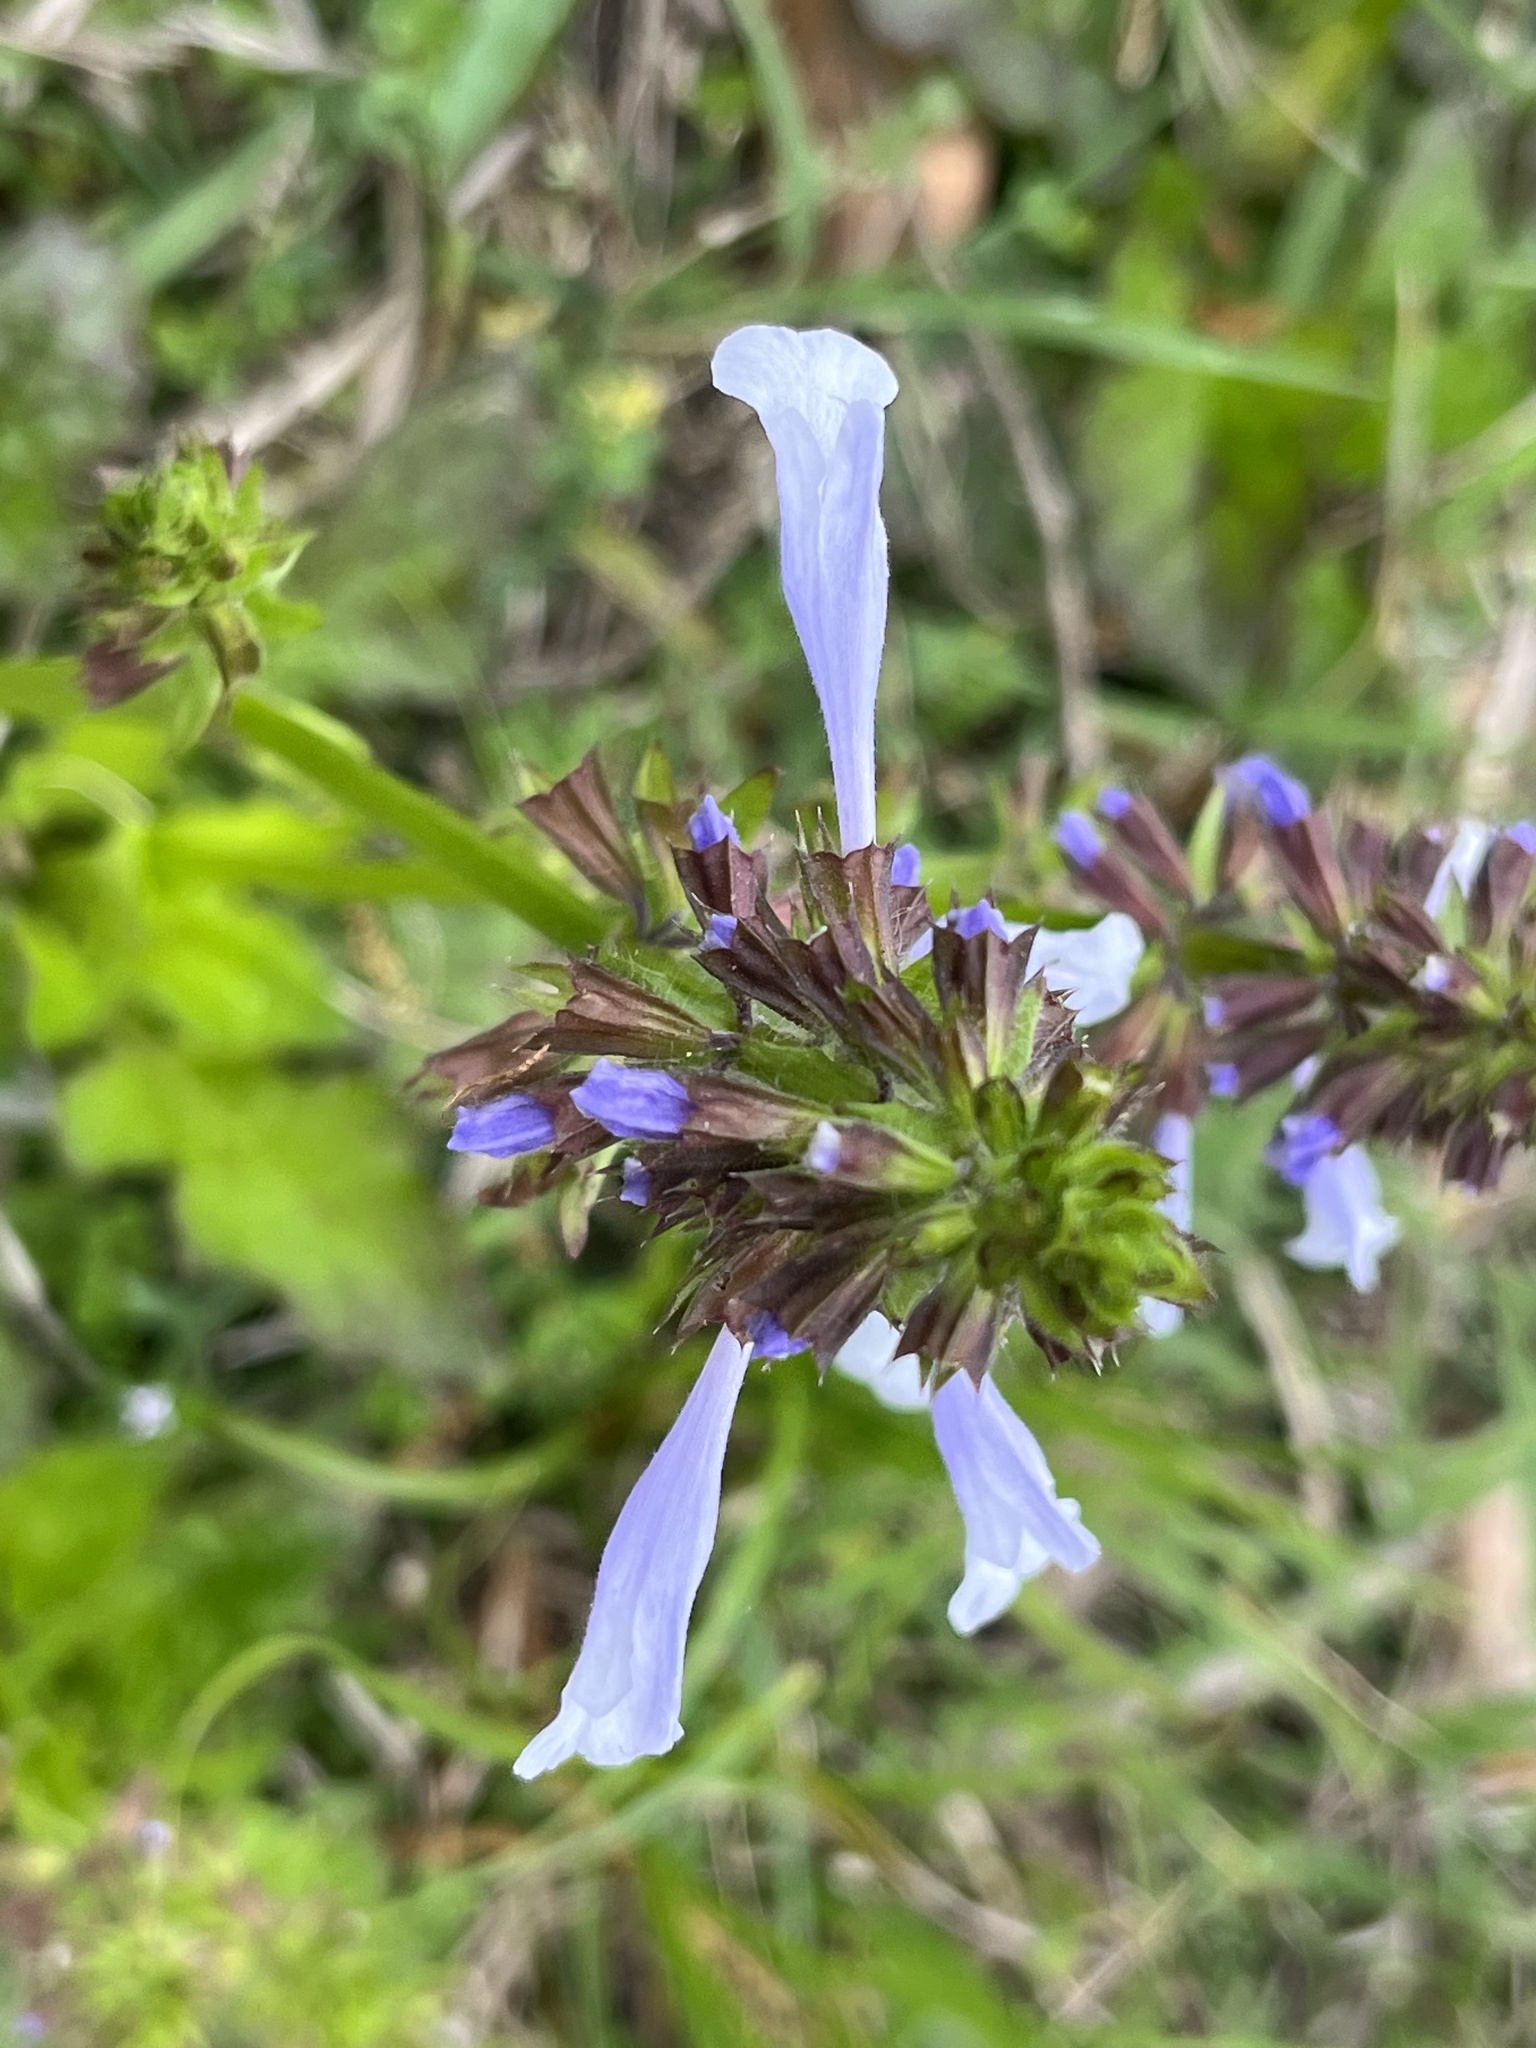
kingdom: Plantae
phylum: Tracheophyta
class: Magnoliopsida
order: Lamiales
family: Lamiaceae
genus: Salvia
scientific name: Salvia lyrata
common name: Cancerweed
